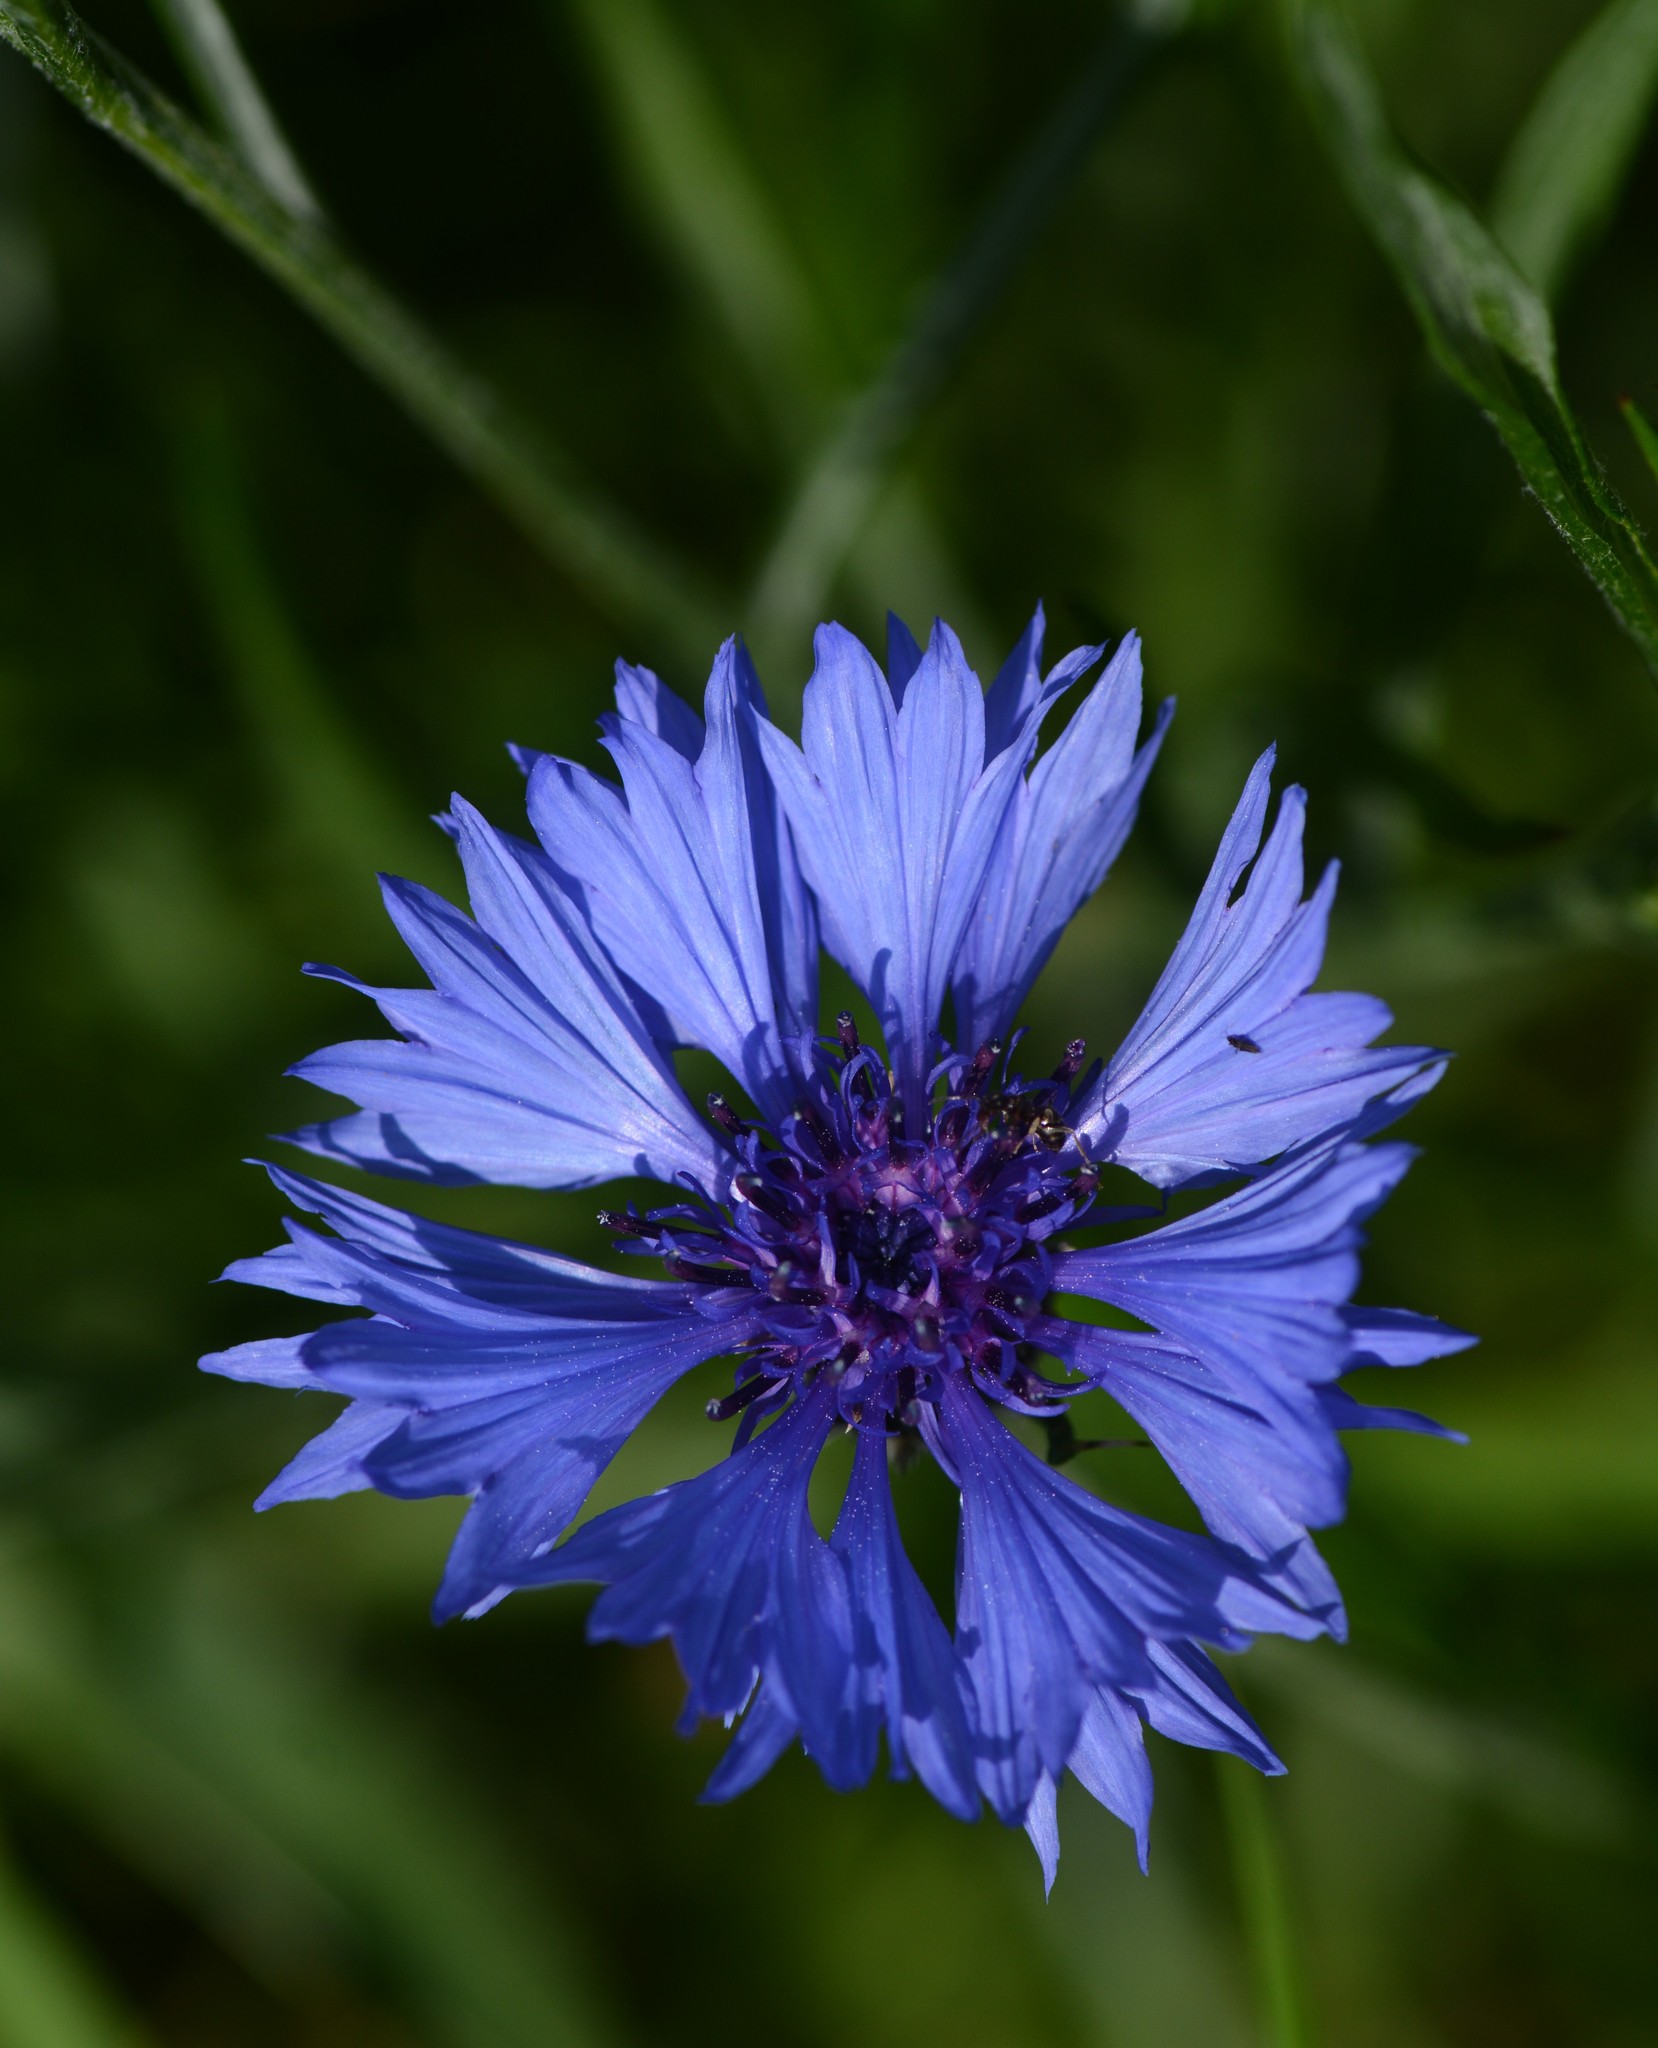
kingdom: Plantae
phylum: Tracheophyta
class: Magnoliopsida
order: Asterales
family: Asteraceae
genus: Centaurea
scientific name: Centaurea cyanus
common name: Cornflower
